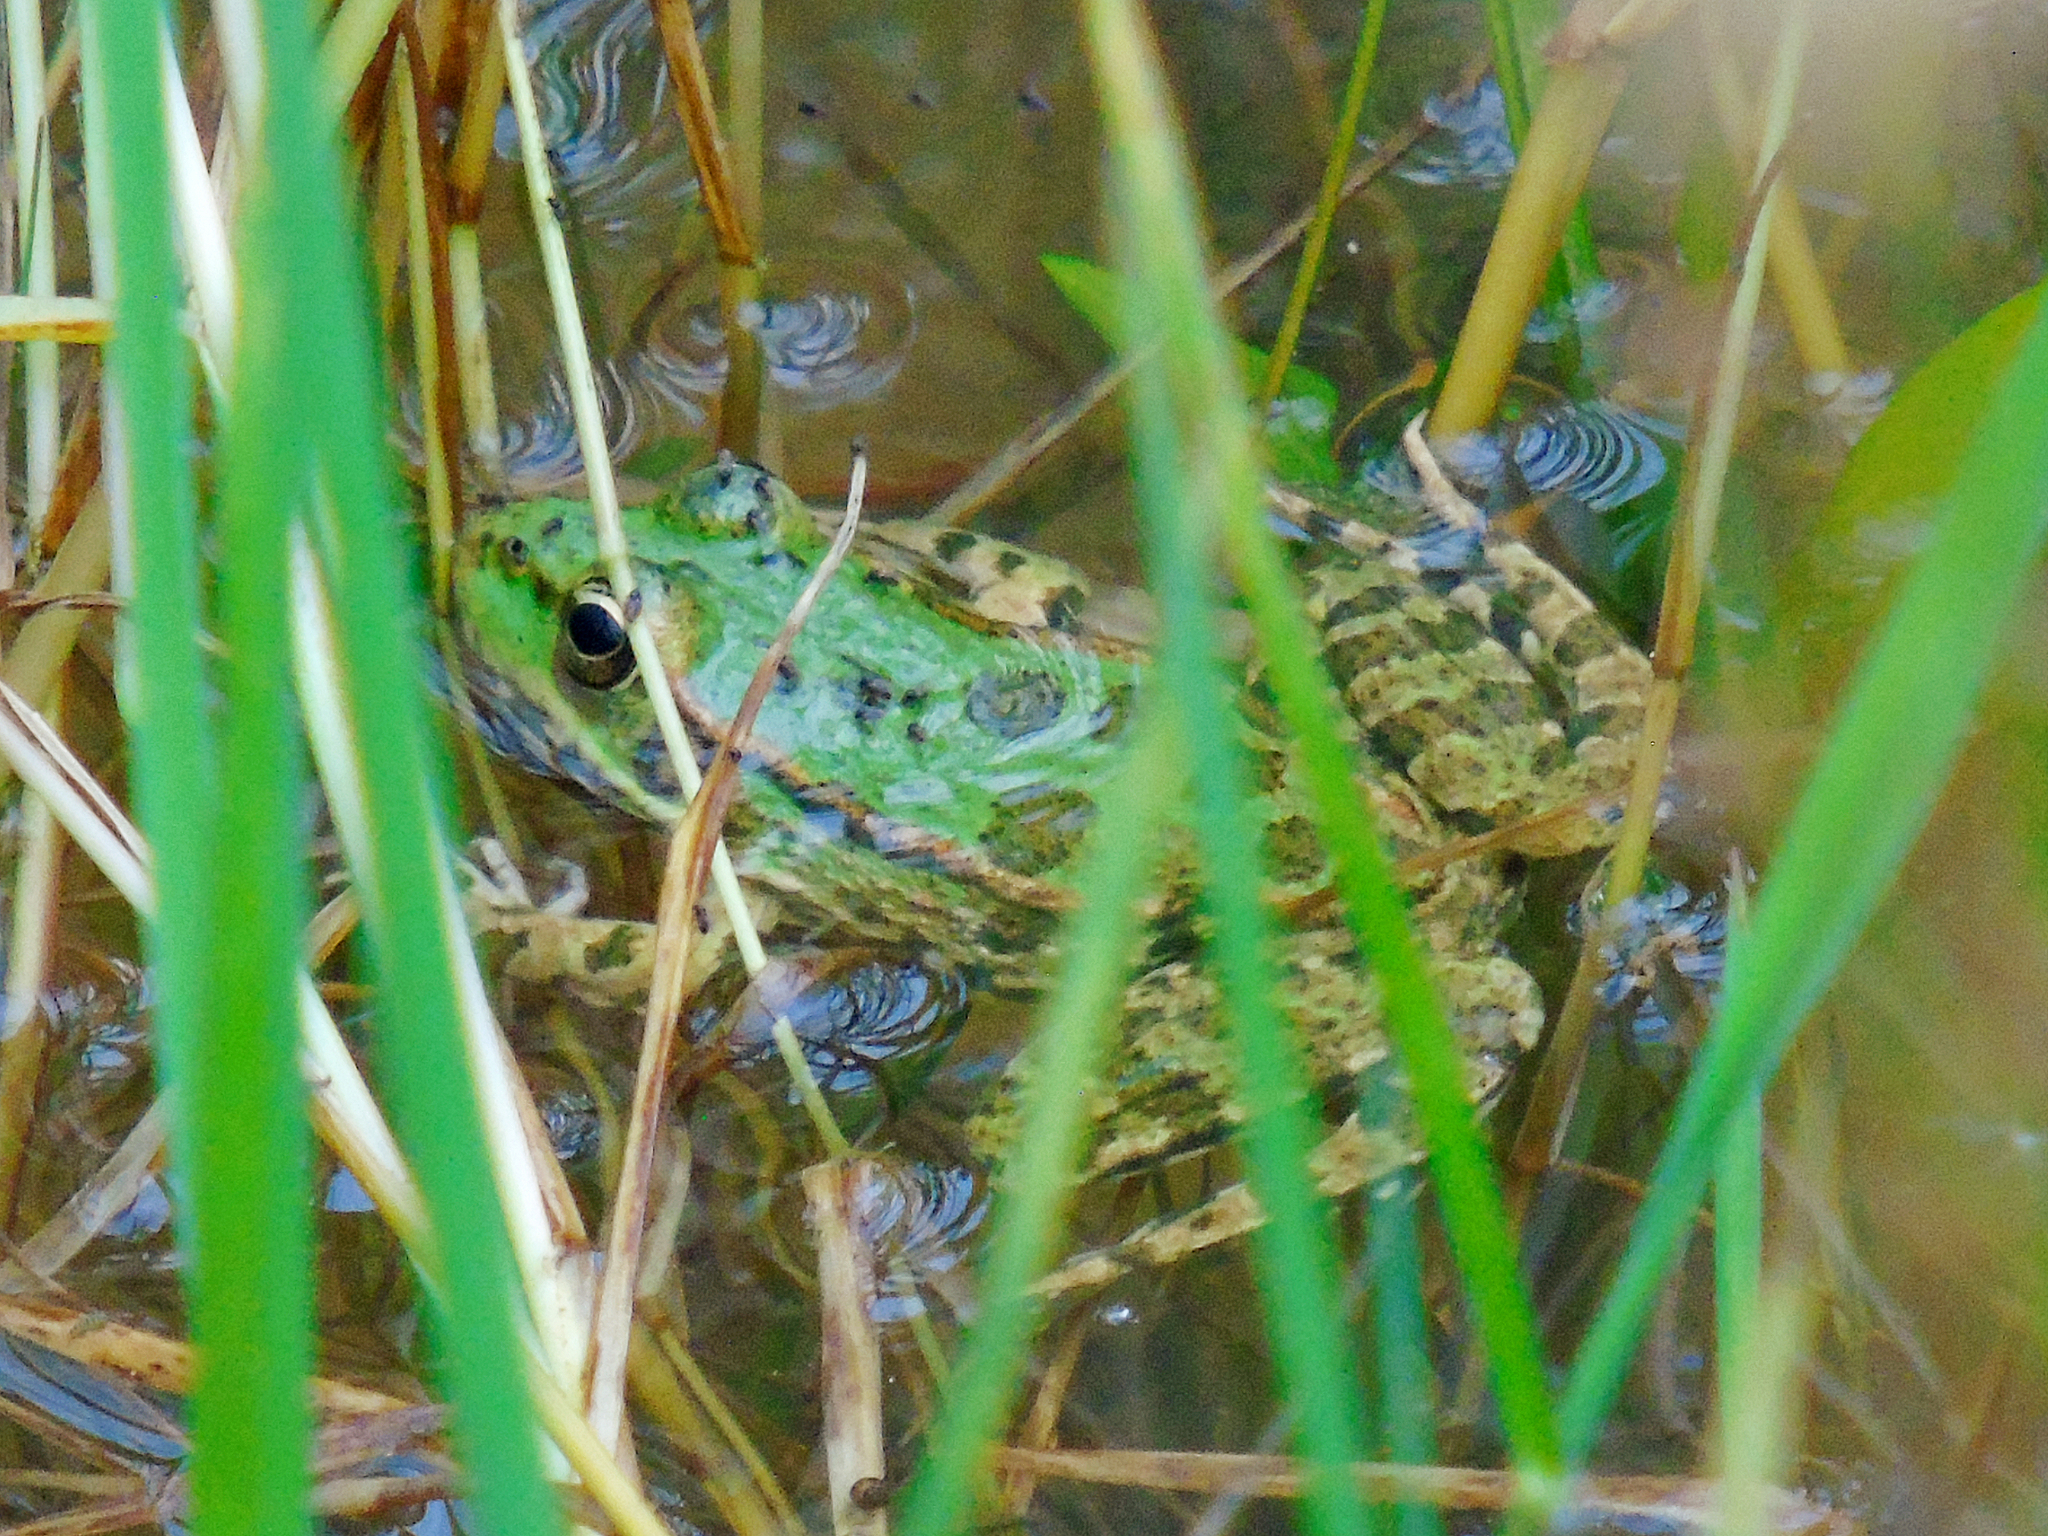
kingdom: Animalia
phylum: Chordata
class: Amphibia
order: Anura
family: Ranidae
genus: Pelophylax
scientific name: Pelophylax ridibundus
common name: Marsh frog
